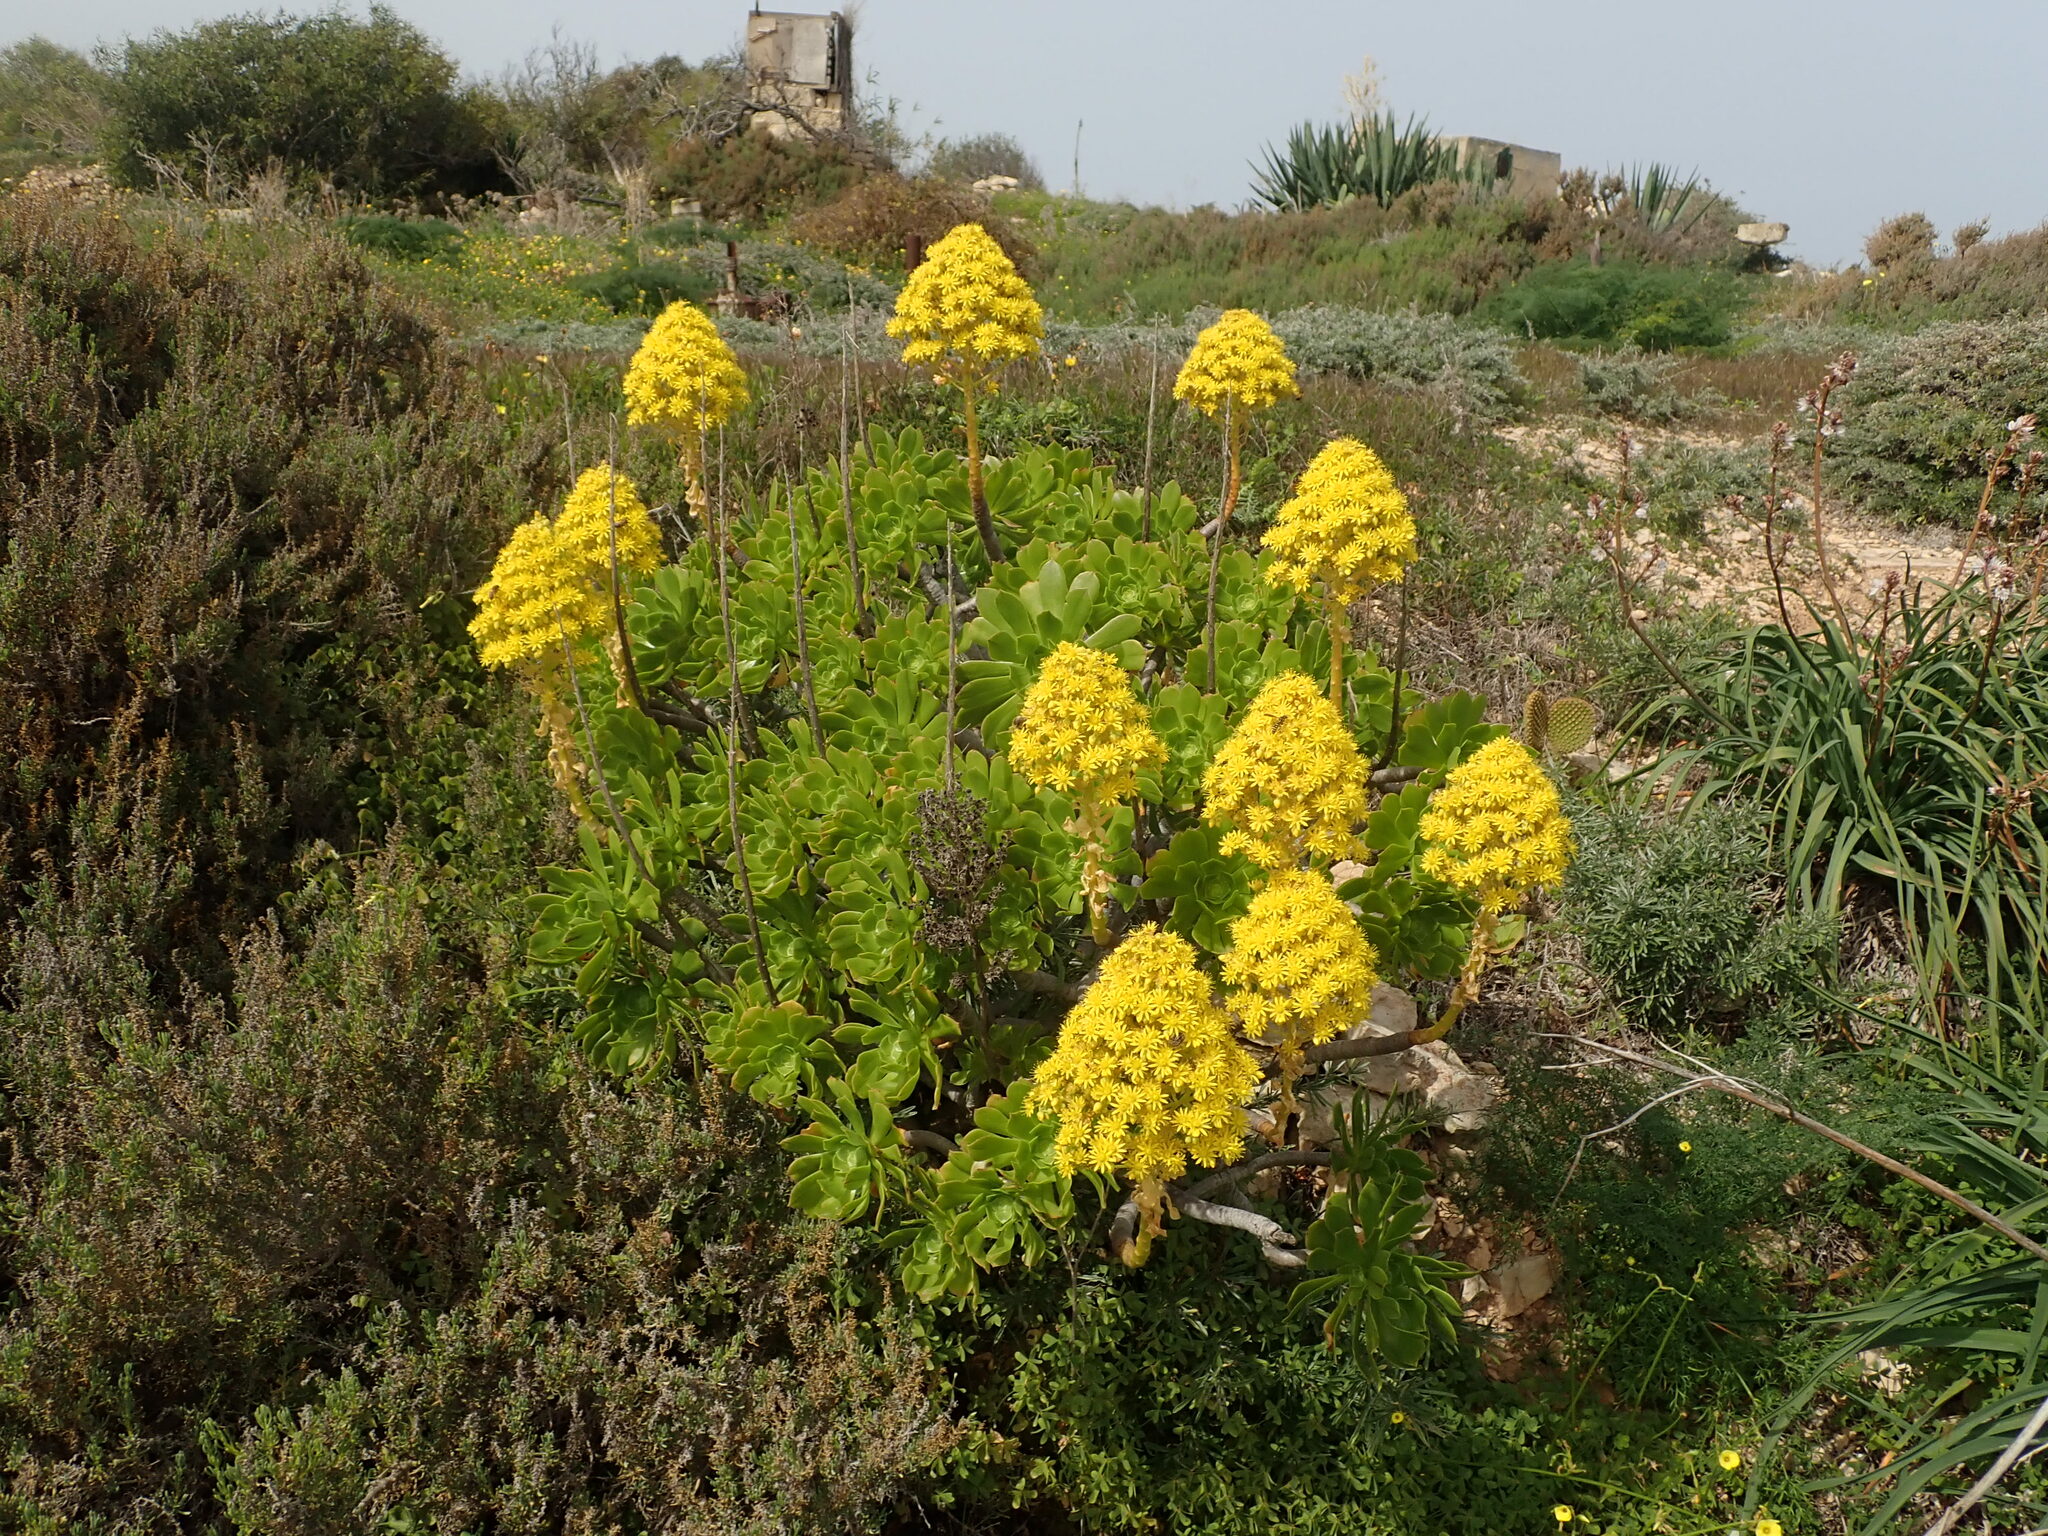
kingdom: Plantae
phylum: Tracheophyta
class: Magnoliopsida
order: Saxifragales
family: Crassulaceae
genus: Aeonium
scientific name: Aeonium arboreum
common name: Tree aeonium
